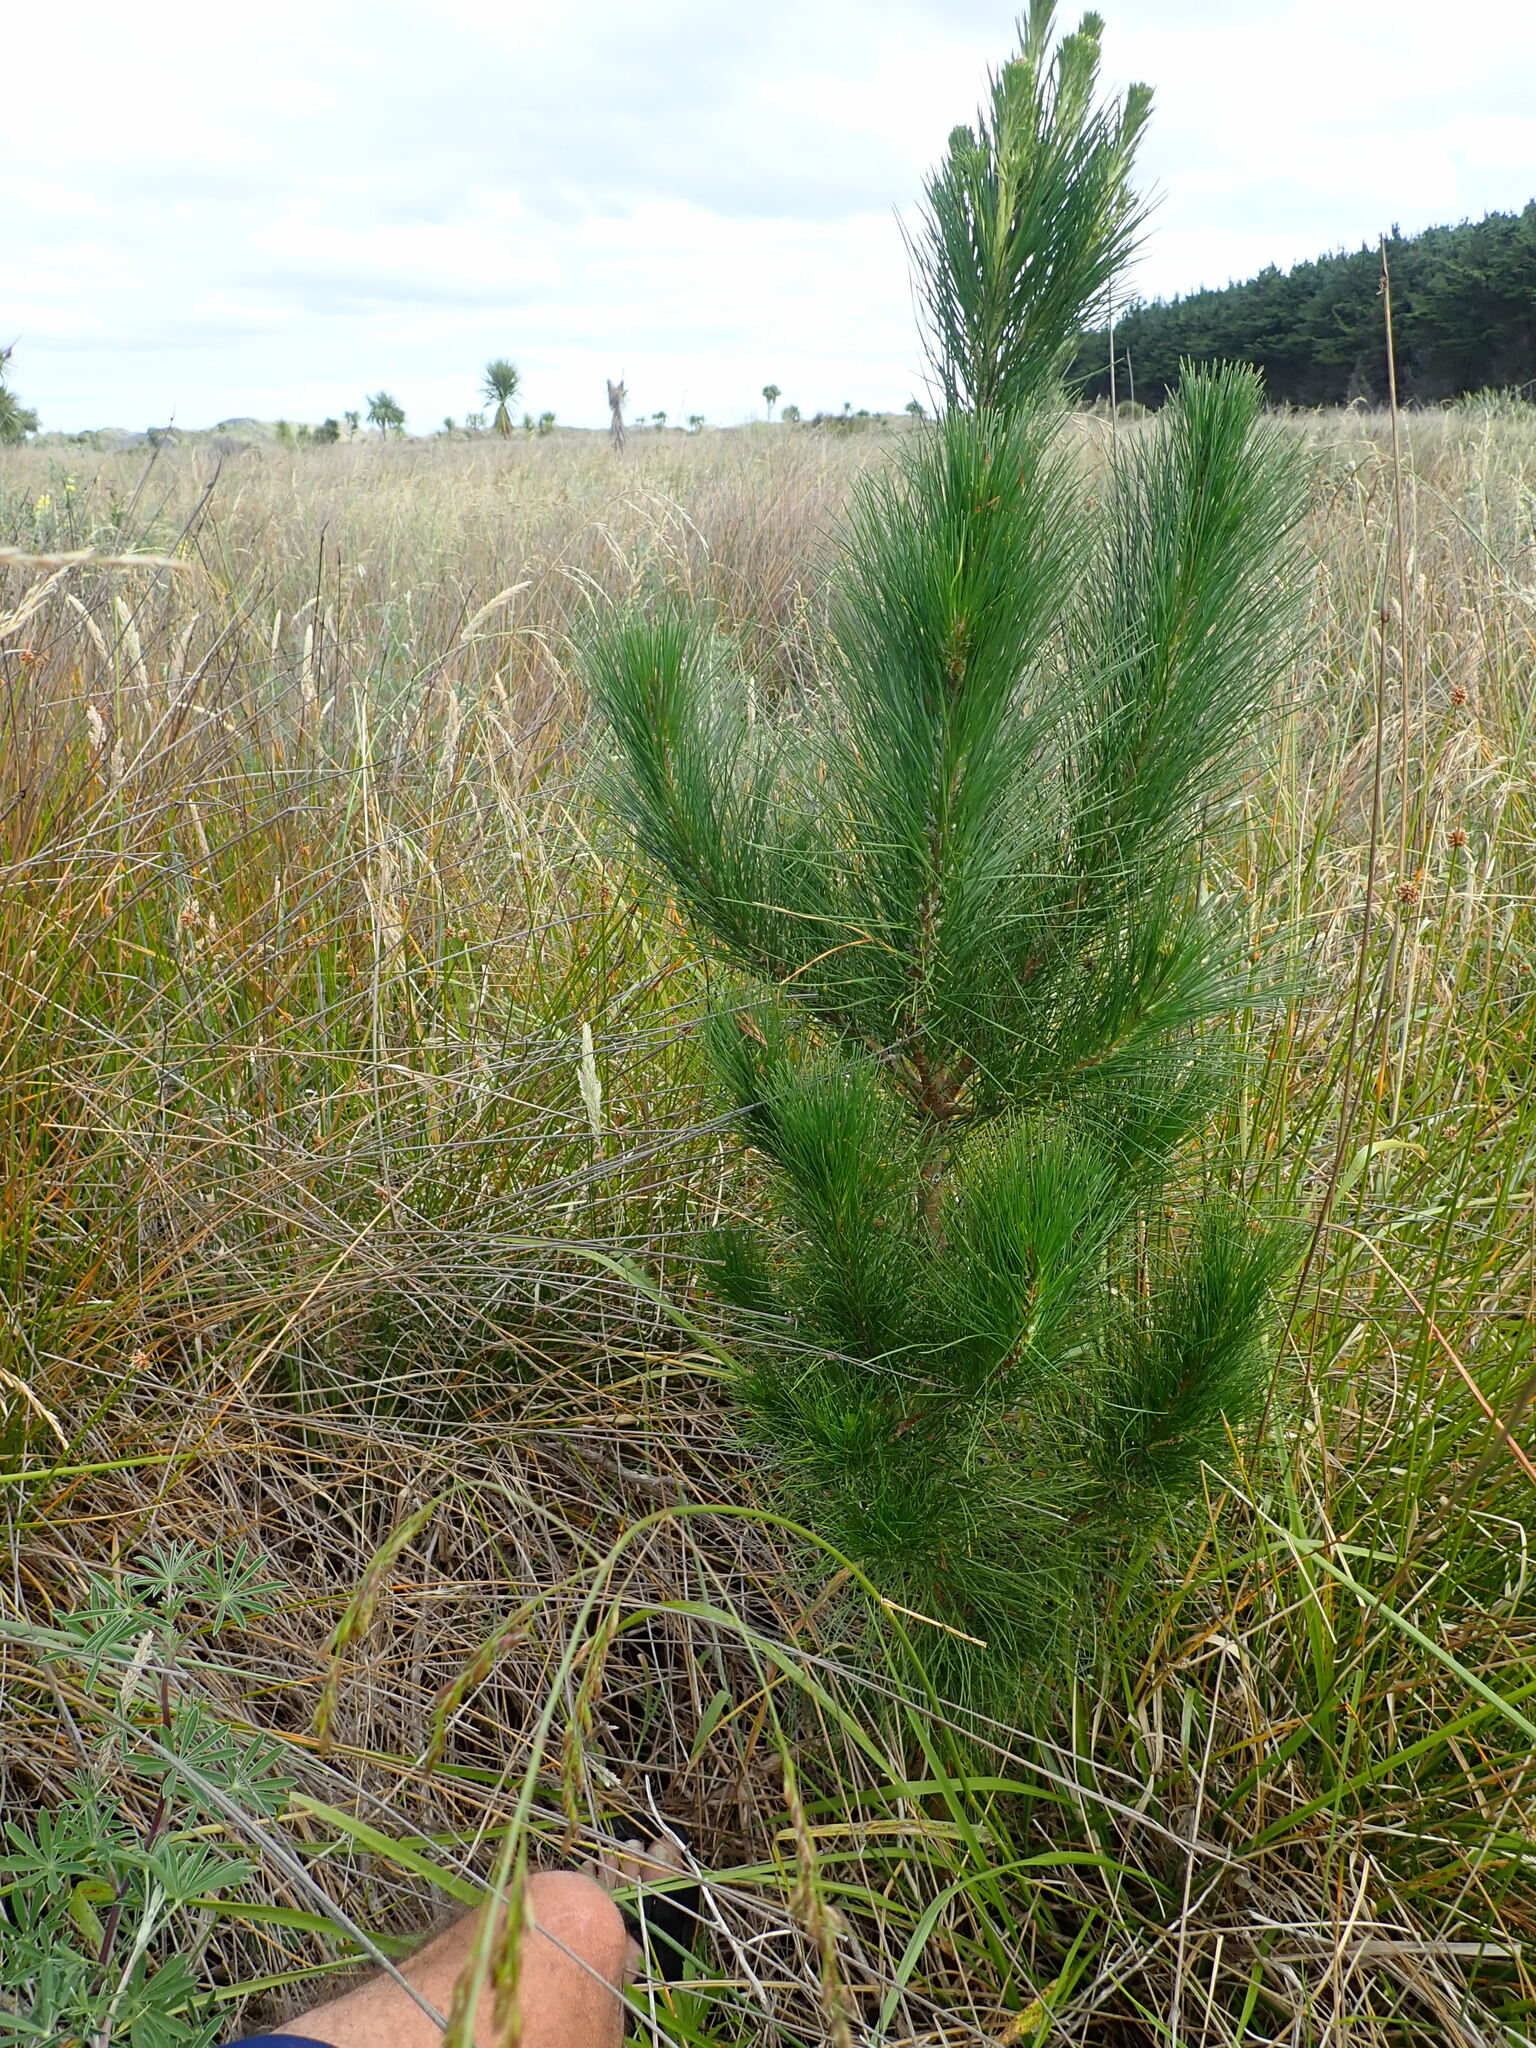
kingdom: Plantae
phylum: Tracheophyta
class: Pinopsida
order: Pinales
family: Pinaceae
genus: Pinus
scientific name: Pinus radiata
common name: Monterey pine
